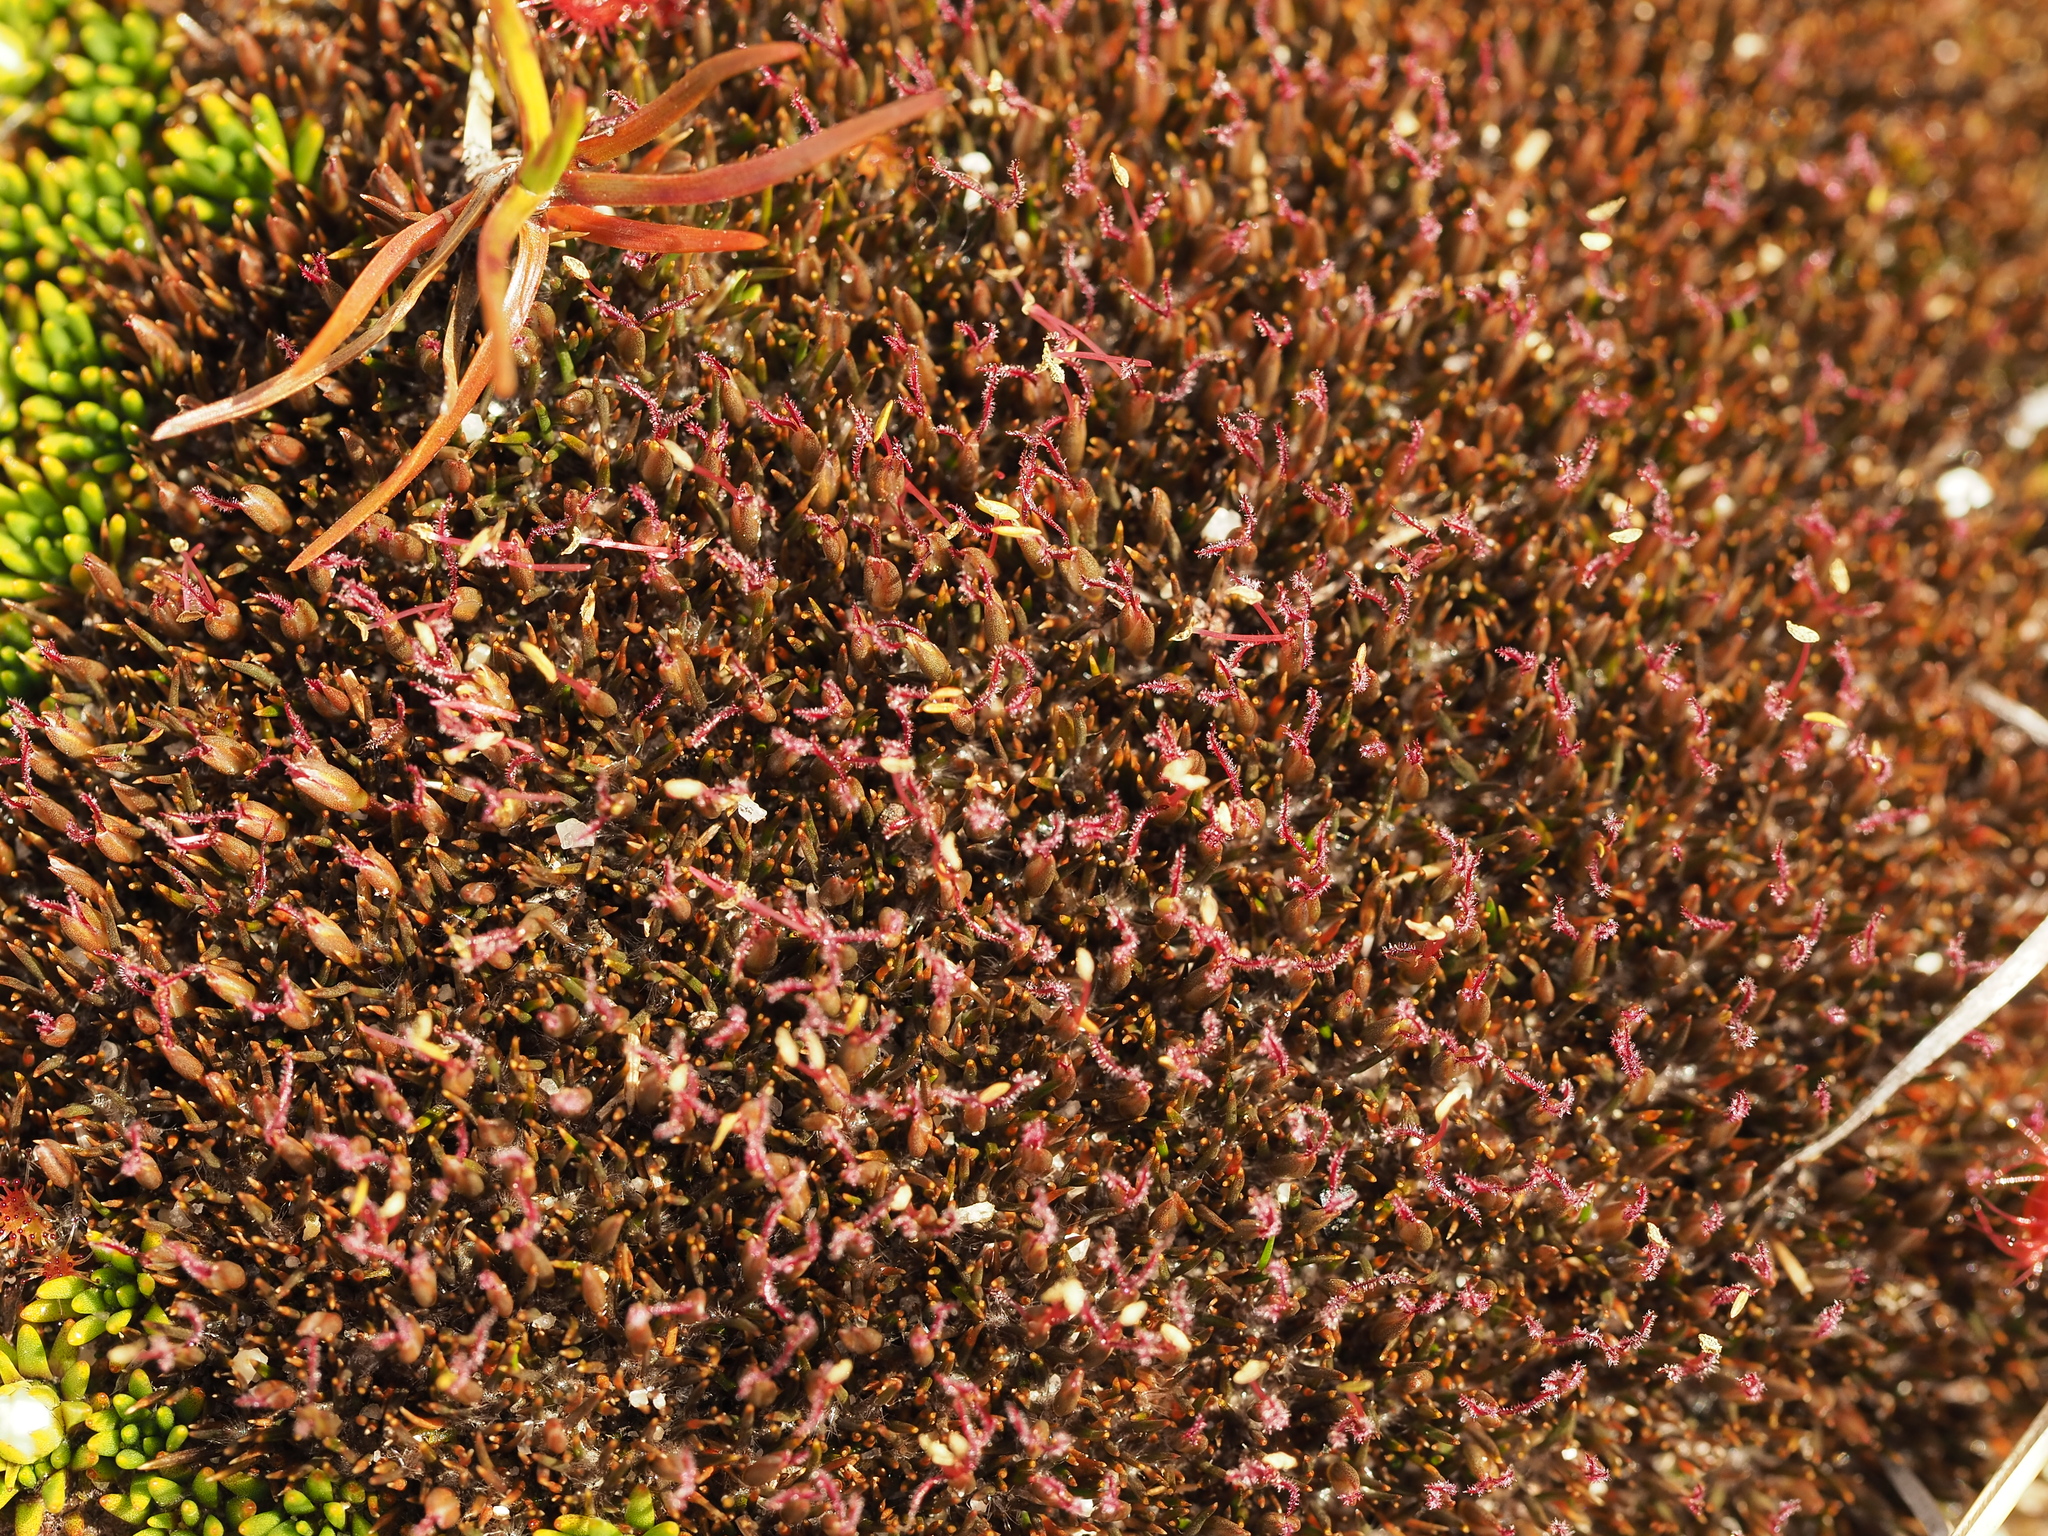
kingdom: Plantae
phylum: Tracheophyta
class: Liliopsida
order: Poales
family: Restionaceae
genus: Centrolepis
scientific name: Centrolepis pallida
